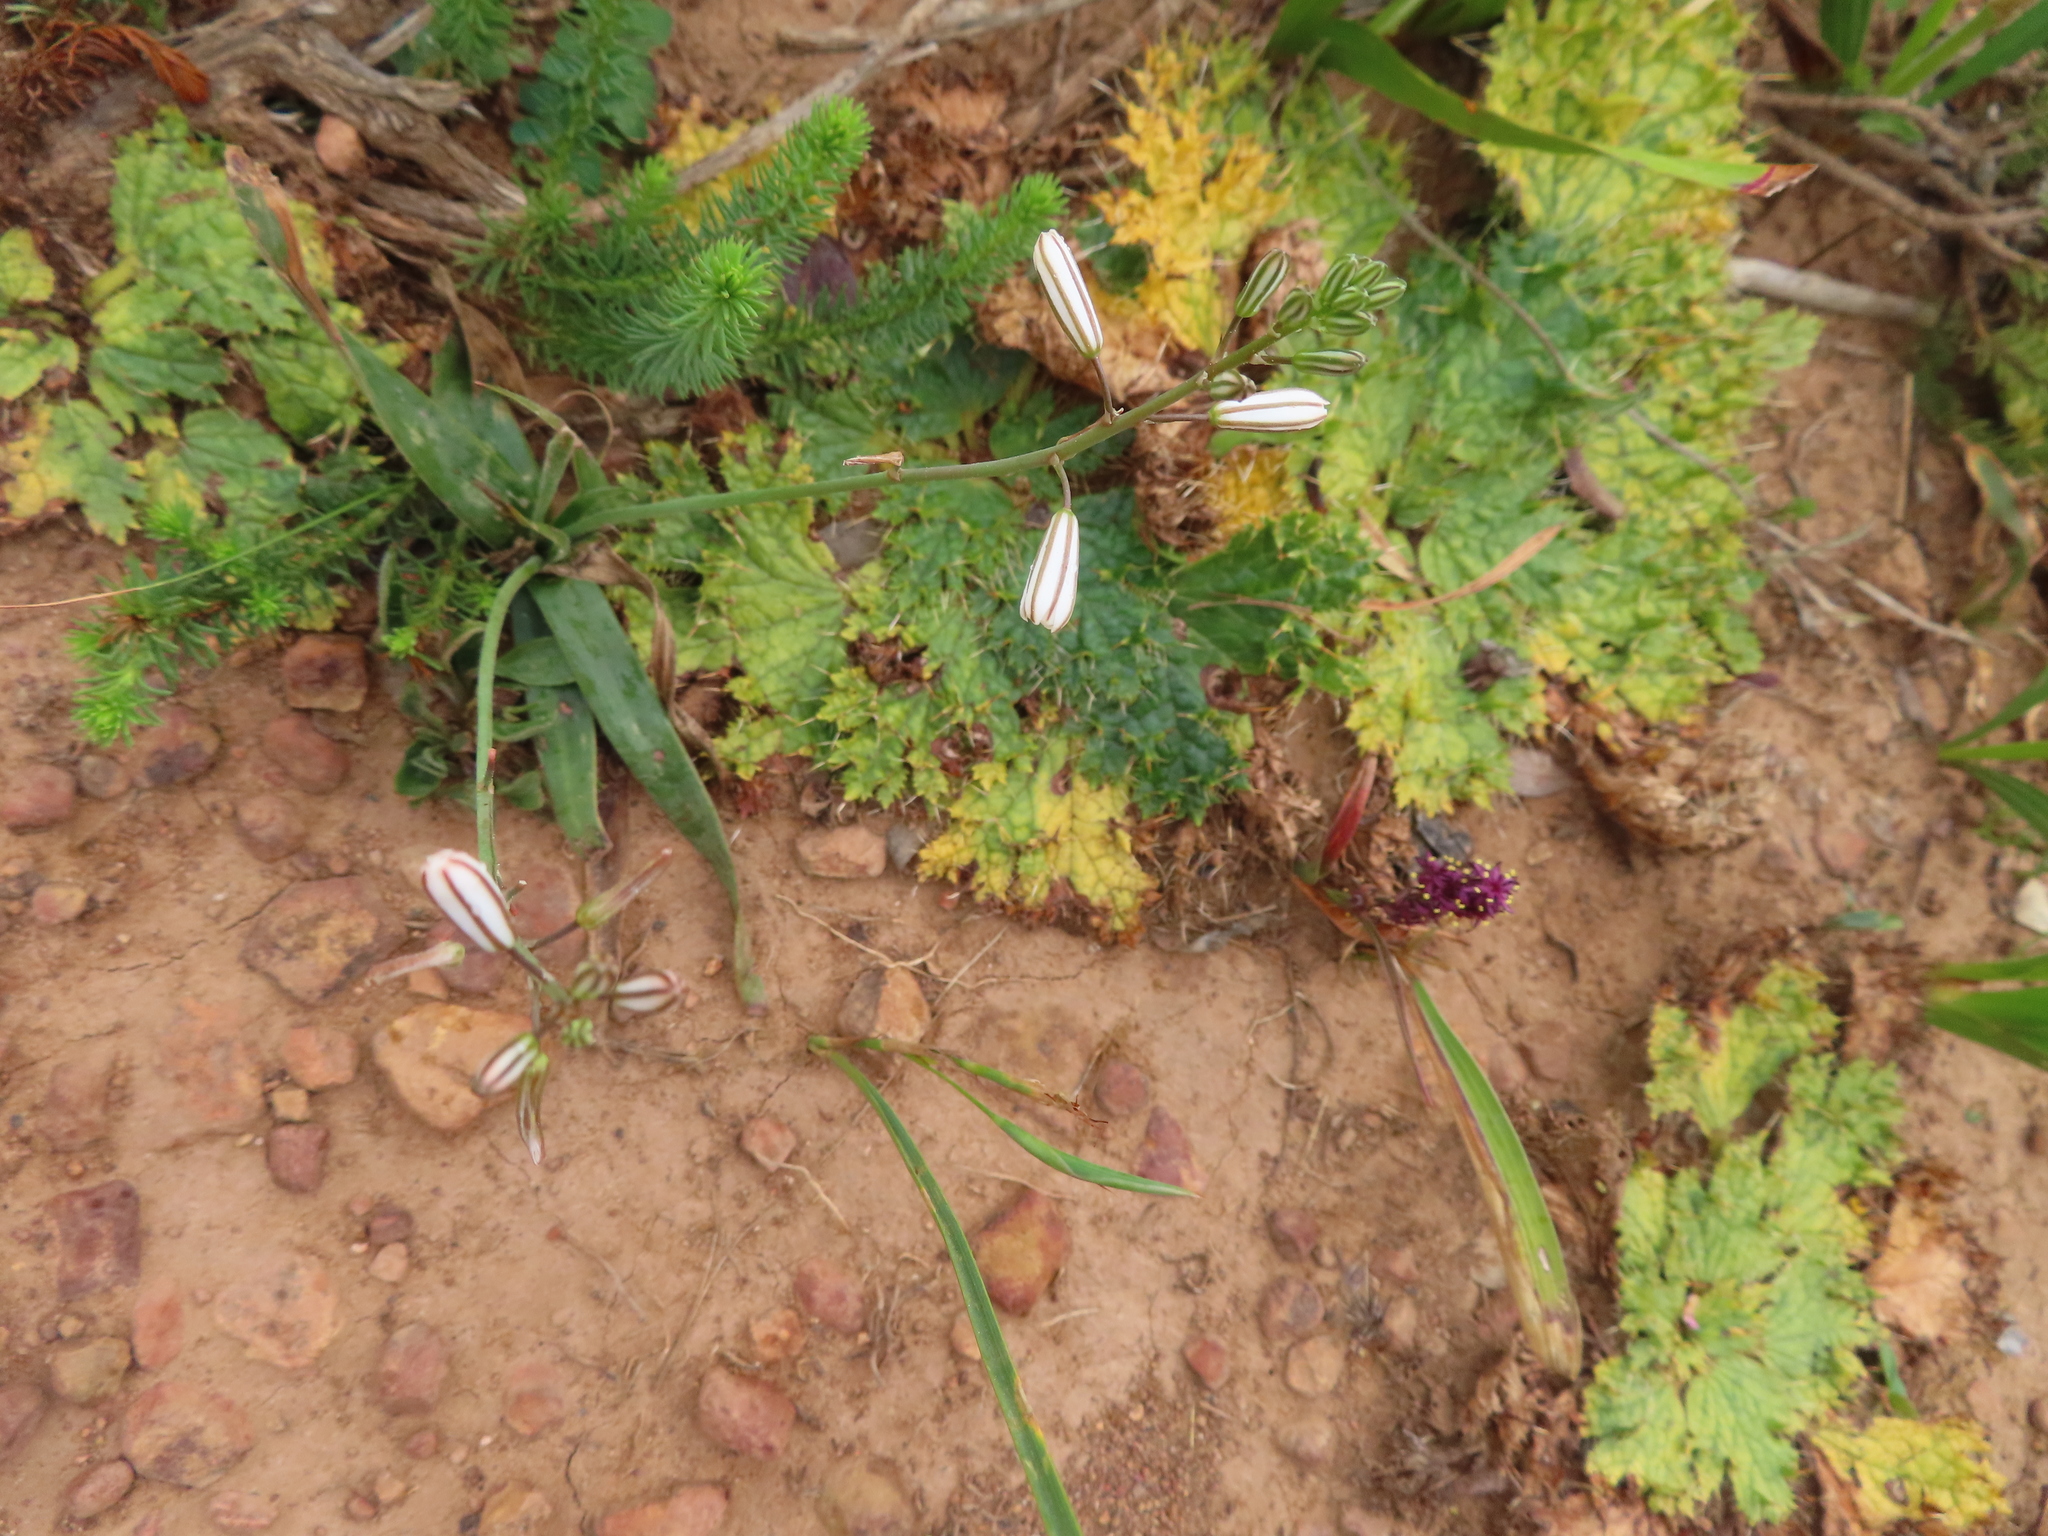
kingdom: Plantae
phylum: Tracheophyta
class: Liliopsida
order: Liliales
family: Colchicaceae
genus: Wurmbea
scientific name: Wurmbea recurva
